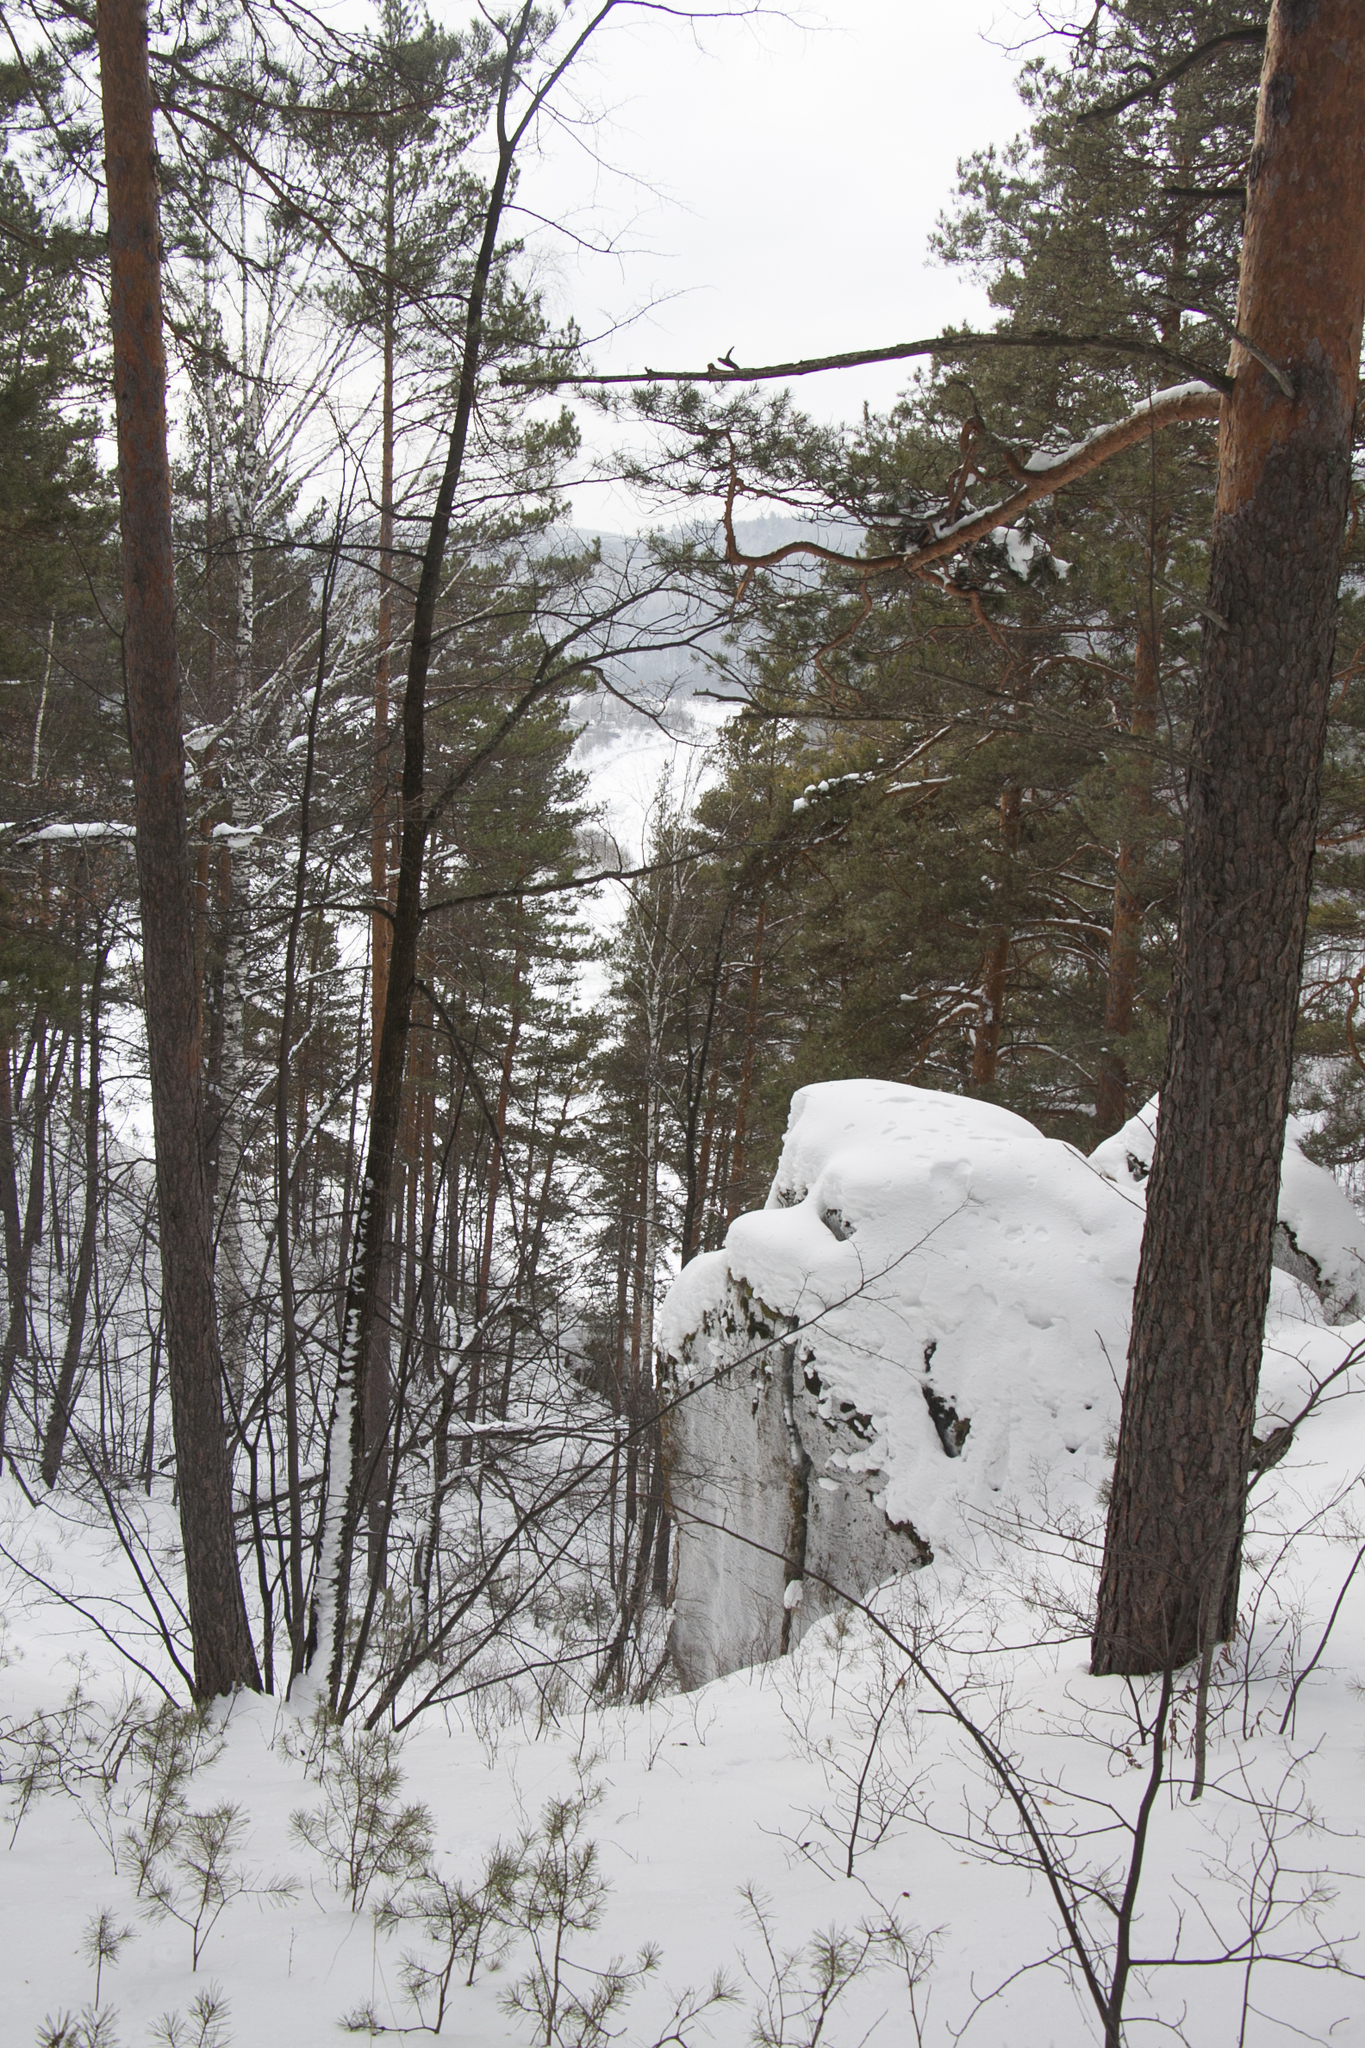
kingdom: Plantae
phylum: Tracheophyta
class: Pinopsida
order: Pinales
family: Pinaceae
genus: Pinus
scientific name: Pinus sylvestris
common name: Scots pine
